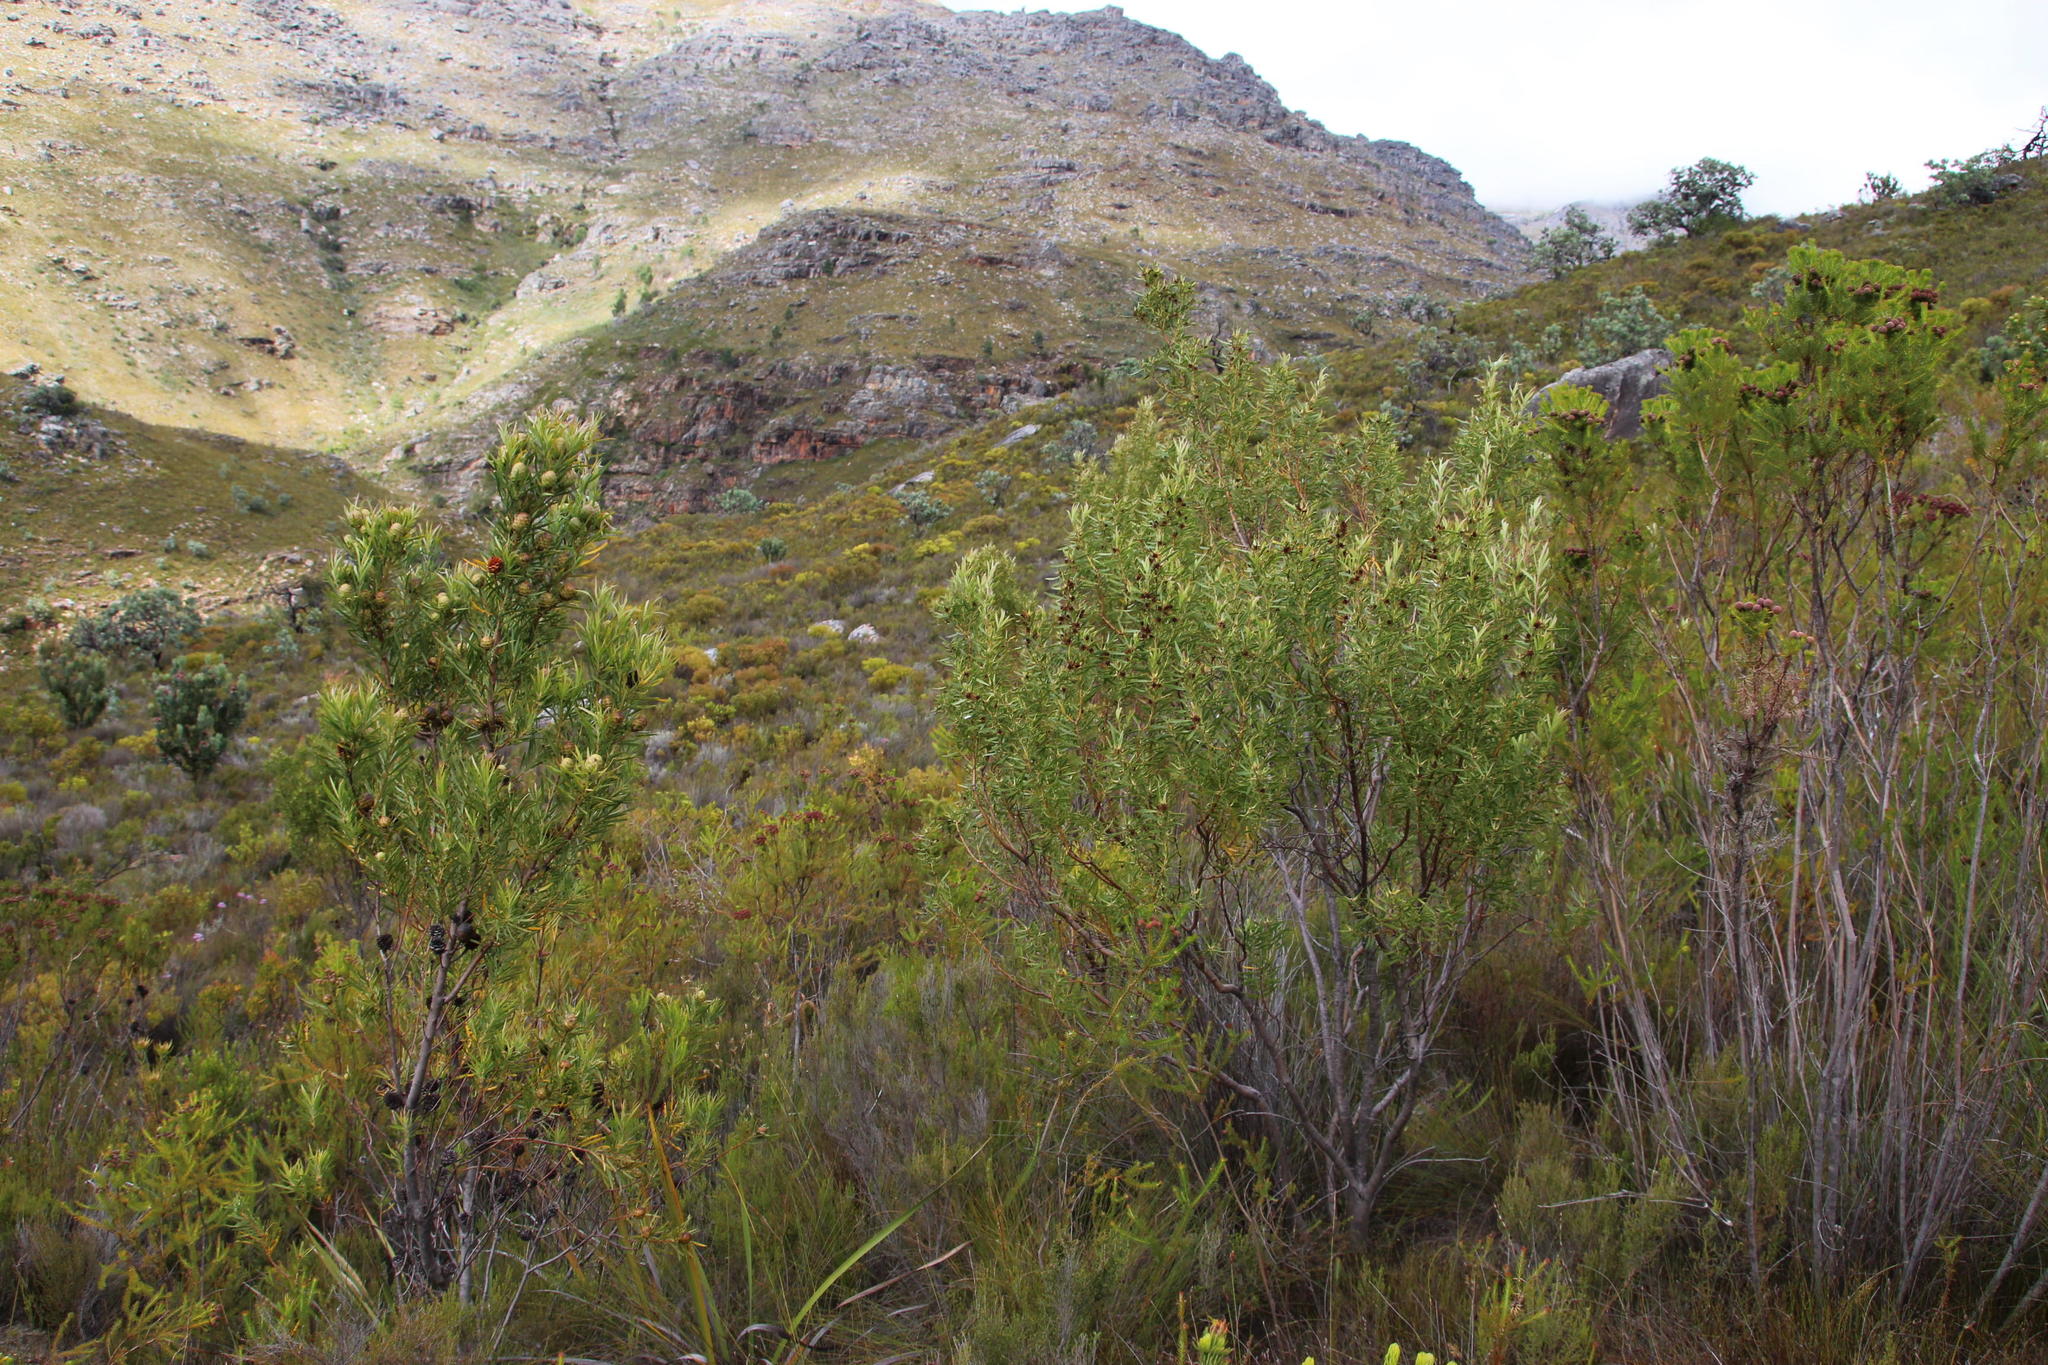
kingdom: Plantae
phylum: Tracheophyta
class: Magnoliopsida
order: Proteales
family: Proteaceae
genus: Leucadendron
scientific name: Leucadendron salicifolium
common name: Common stream conebush
